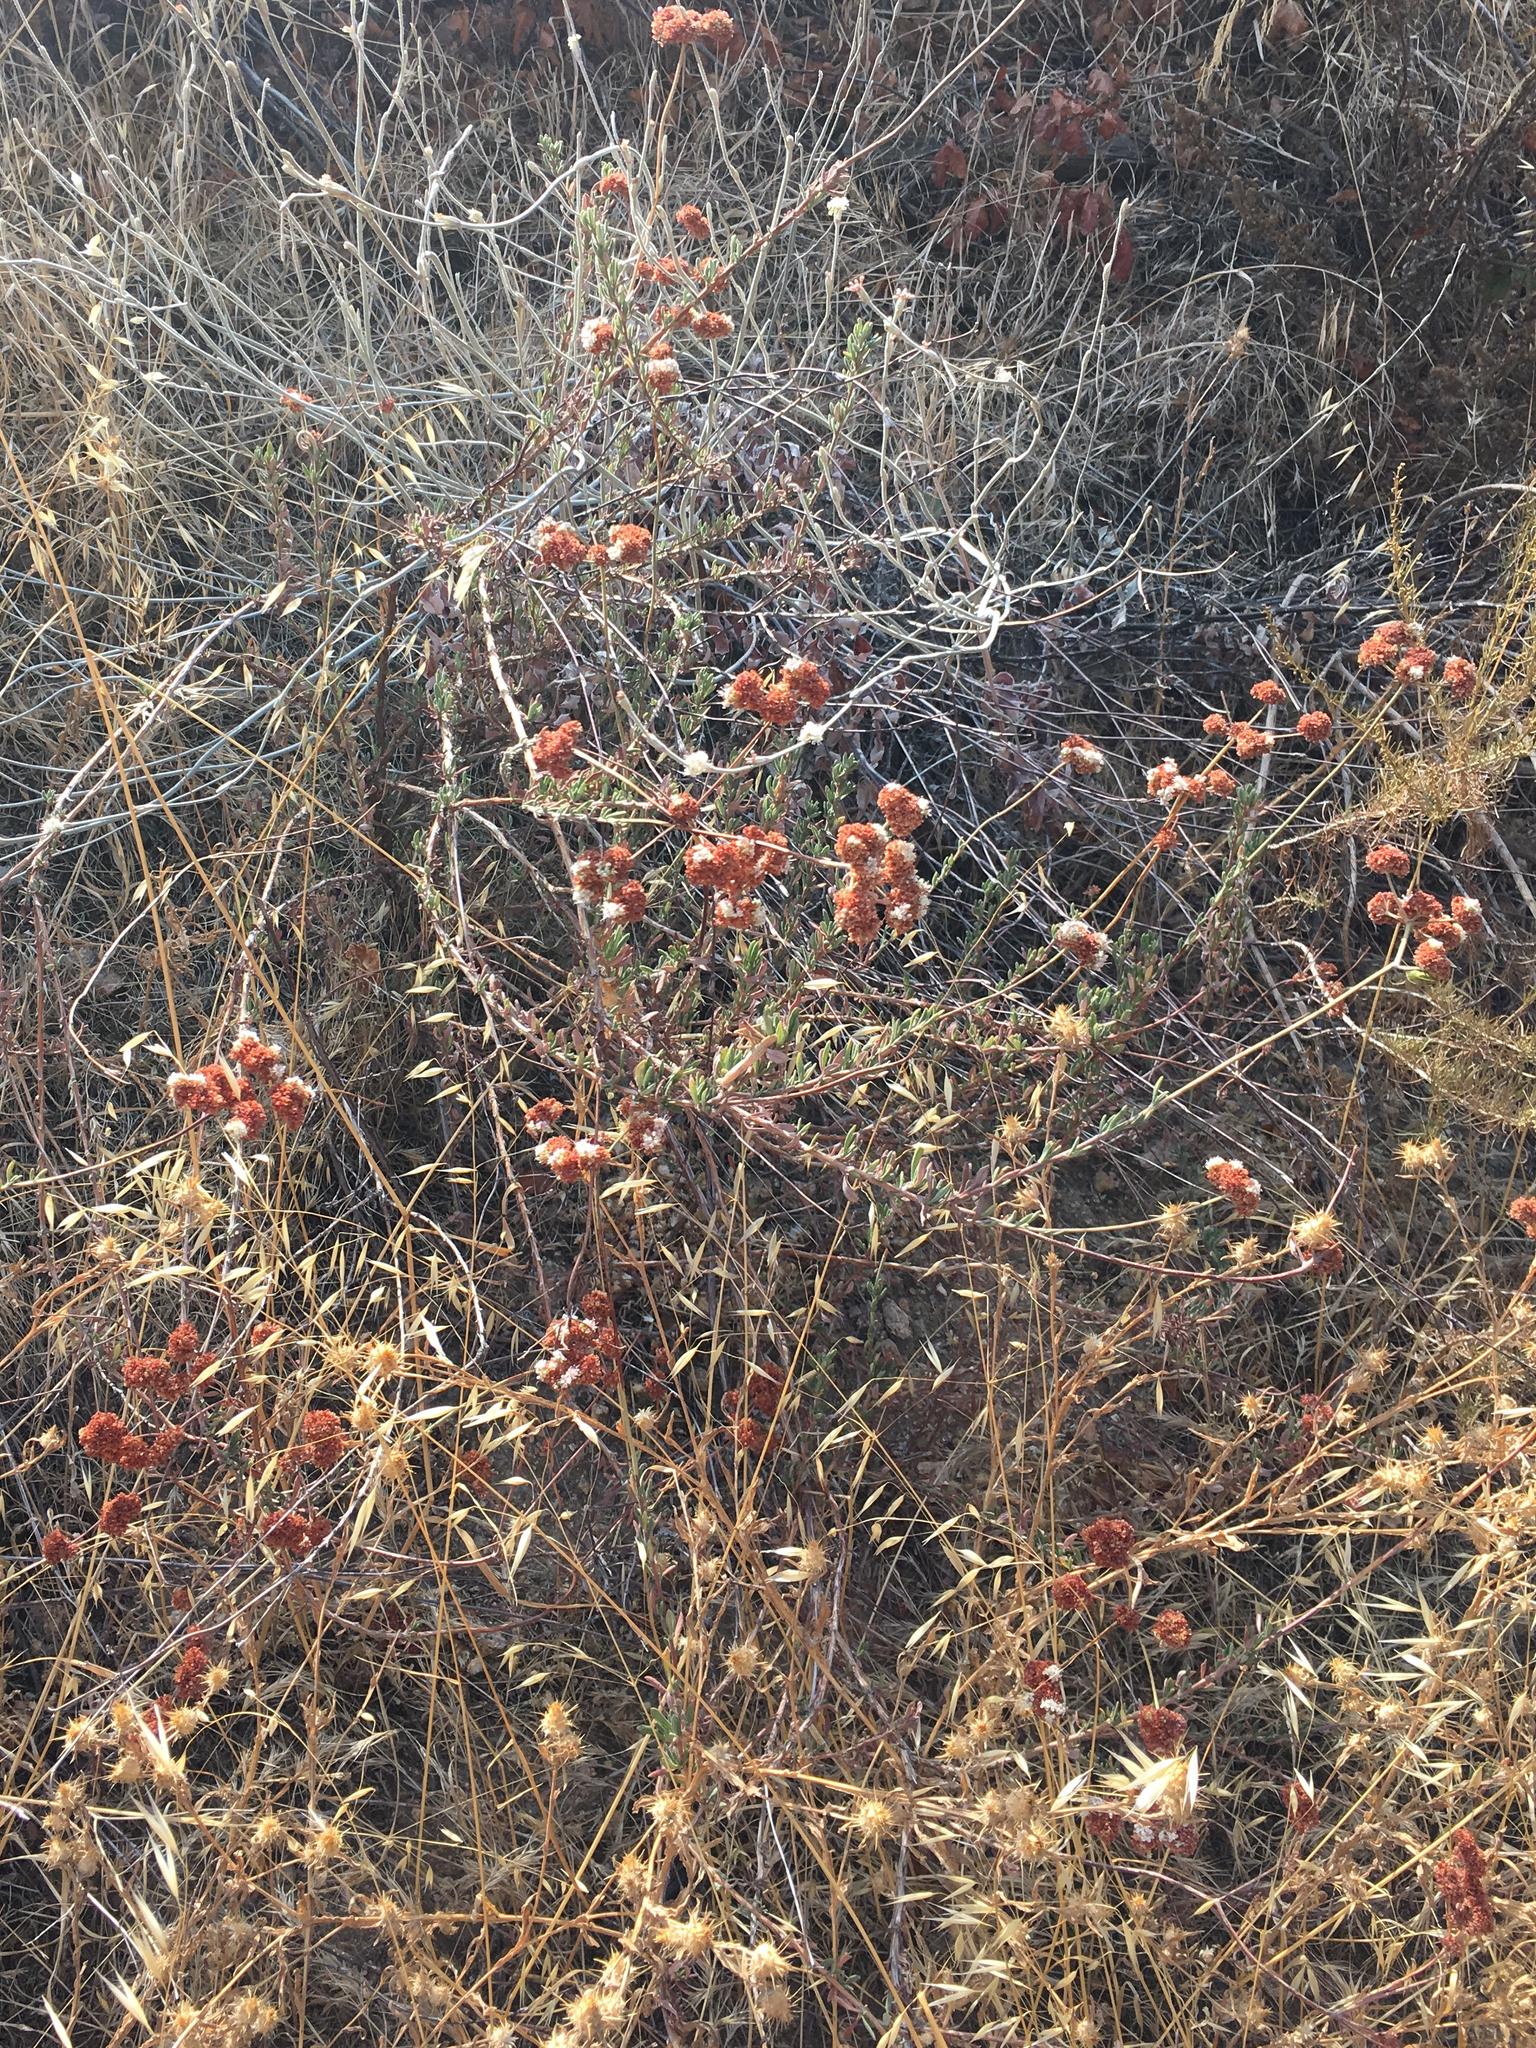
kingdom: Plantae
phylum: Tracheophyta
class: Magnoliopsida
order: Caryophyllales
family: Polygonaceae
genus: Eriogonum
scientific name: Eriogonum fasciculatum
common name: California wild buckwheat
